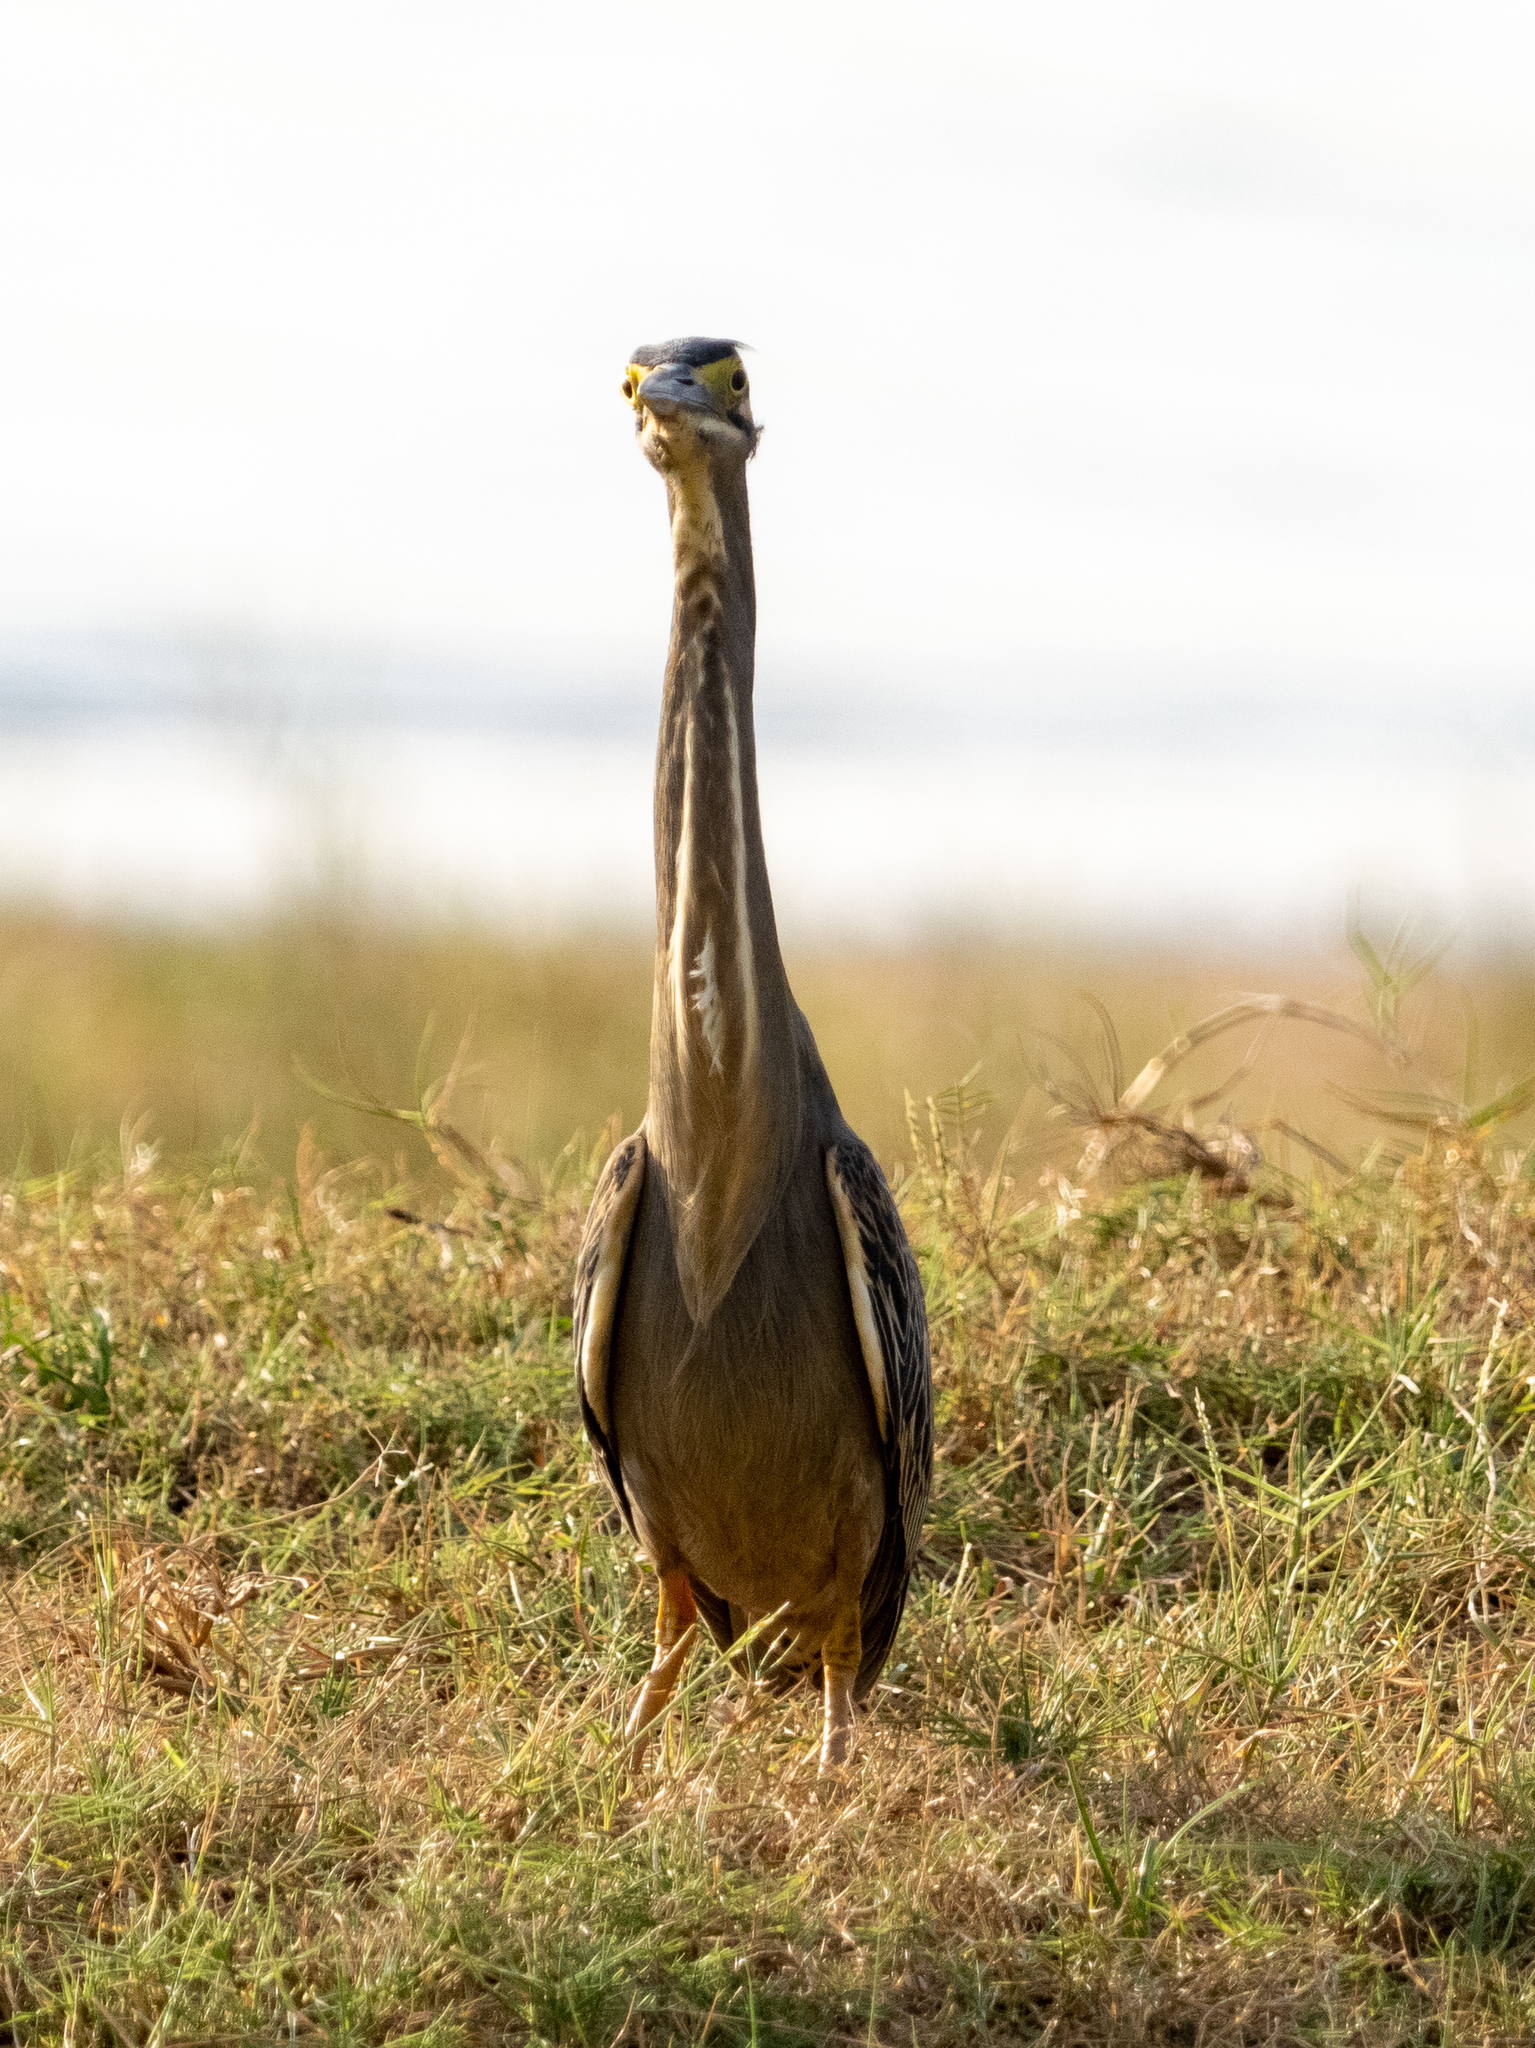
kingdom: Animalia
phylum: Chordata
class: Aves
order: Pelecaniformes
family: Ardeidae
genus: Butorides
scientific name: Butorides striata
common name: Striated heron
